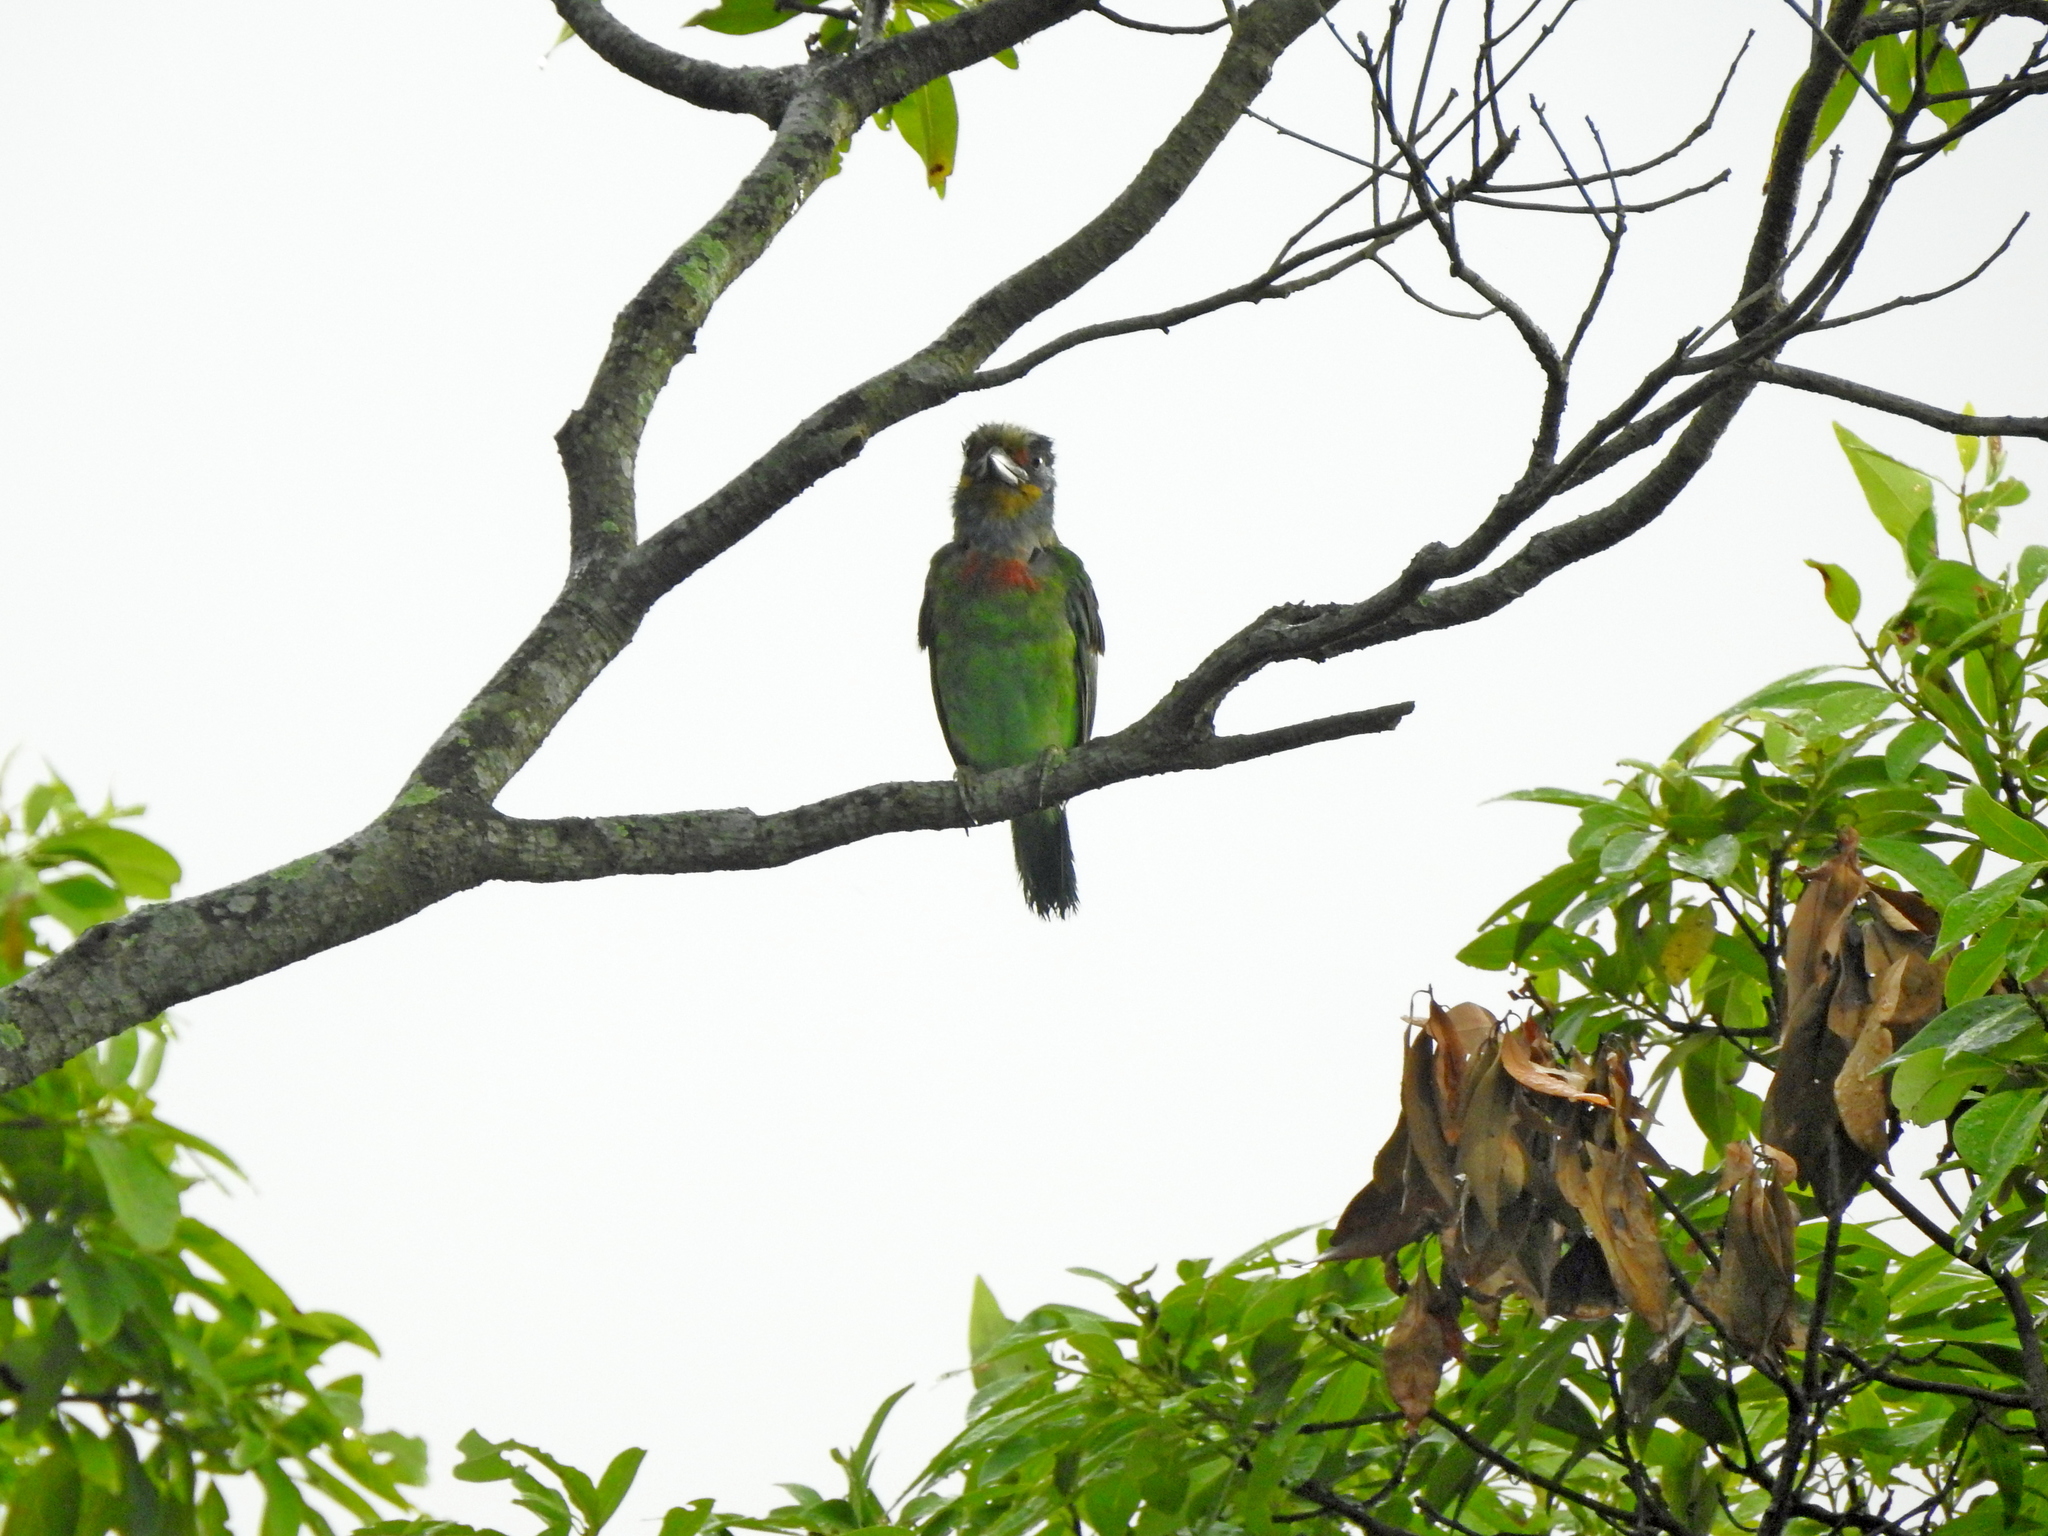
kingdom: Animalia
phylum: Chordata
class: Aves
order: Piciformes
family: Megalaimidae
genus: Psilopogon
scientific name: Psilopogon nuchalis
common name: Taiwan barbet
